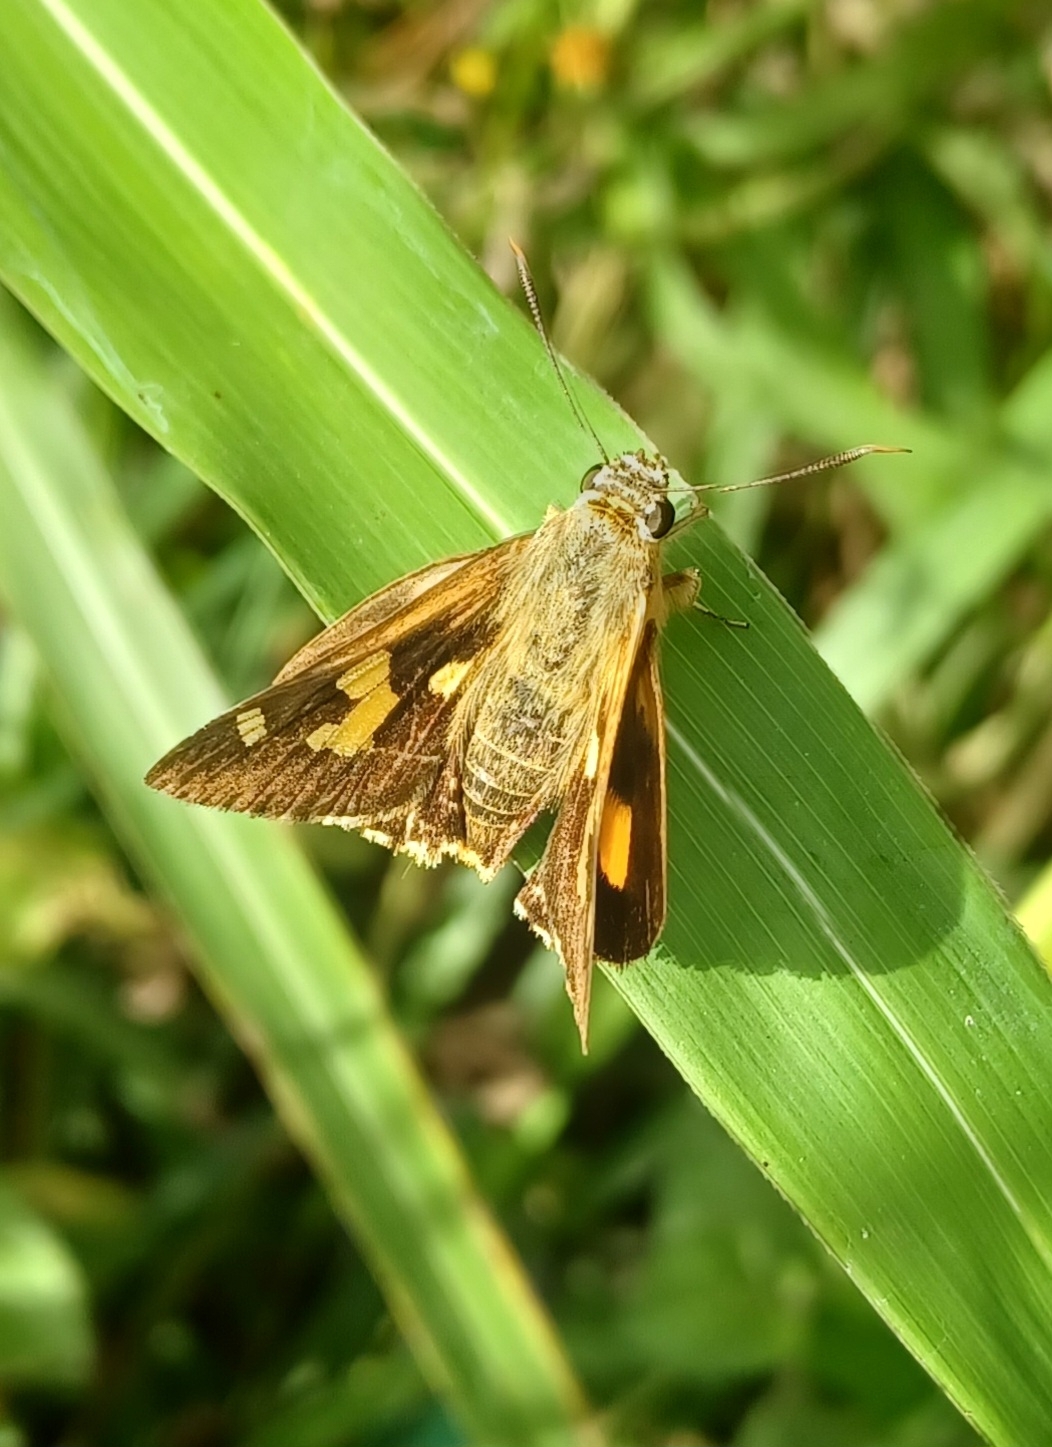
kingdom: Animalia
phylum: Arthropoda
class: Insecta
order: Lepidoptera
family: Hesperiidae
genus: Trapezites
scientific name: Trapezites symmomus
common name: Splendid ochre
